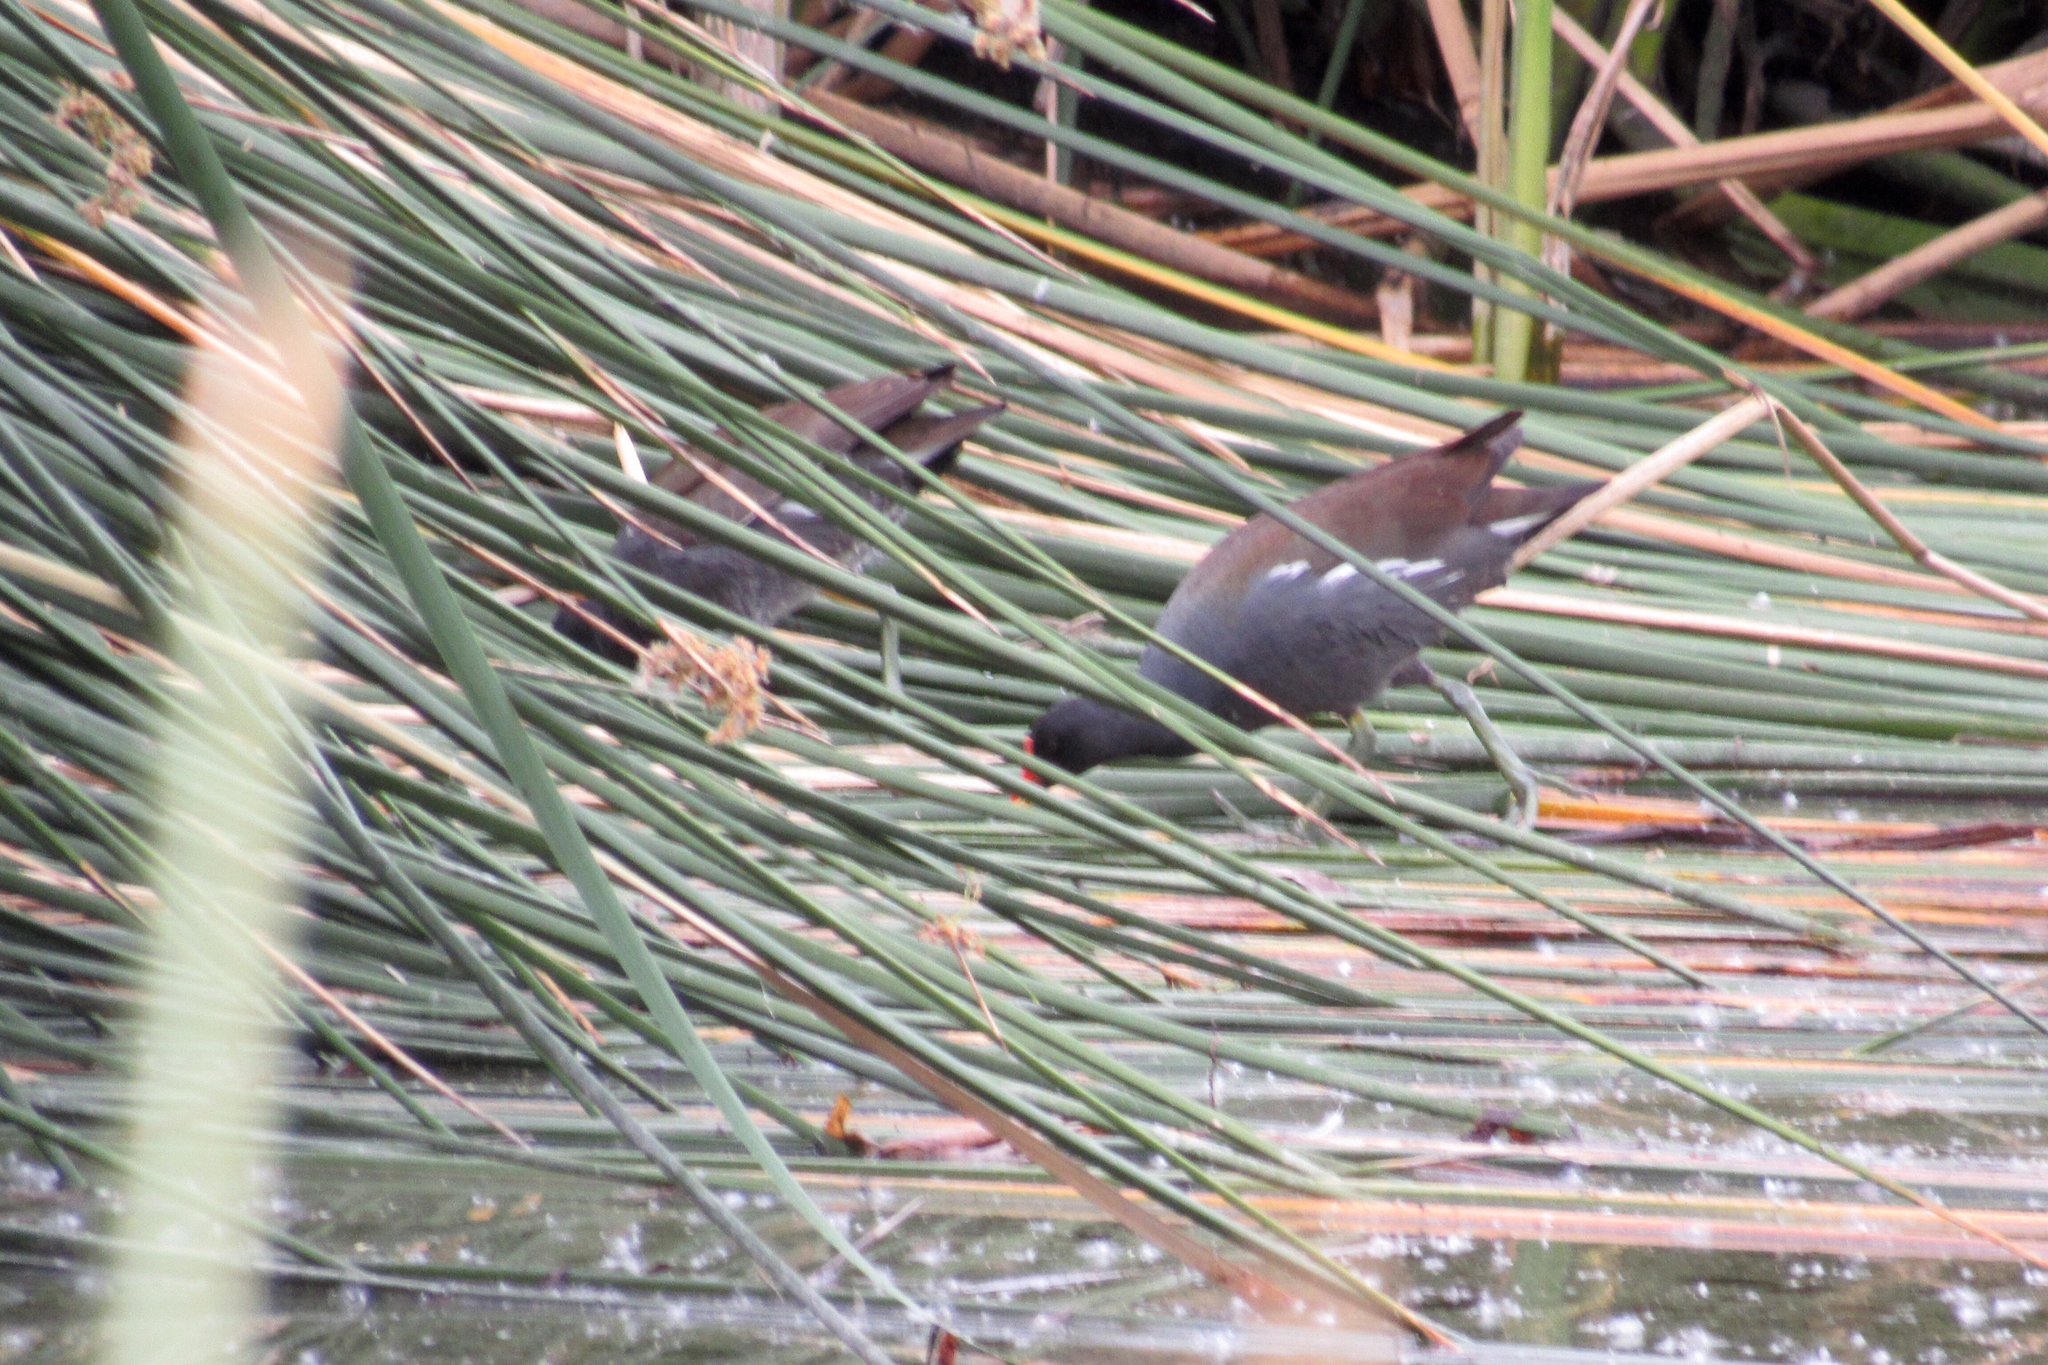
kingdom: Animalia
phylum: Chordata
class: Aves
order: Gruiformes
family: Rallidae
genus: Gallinula
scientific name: Gallinula chloropus
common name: Common moorhen
